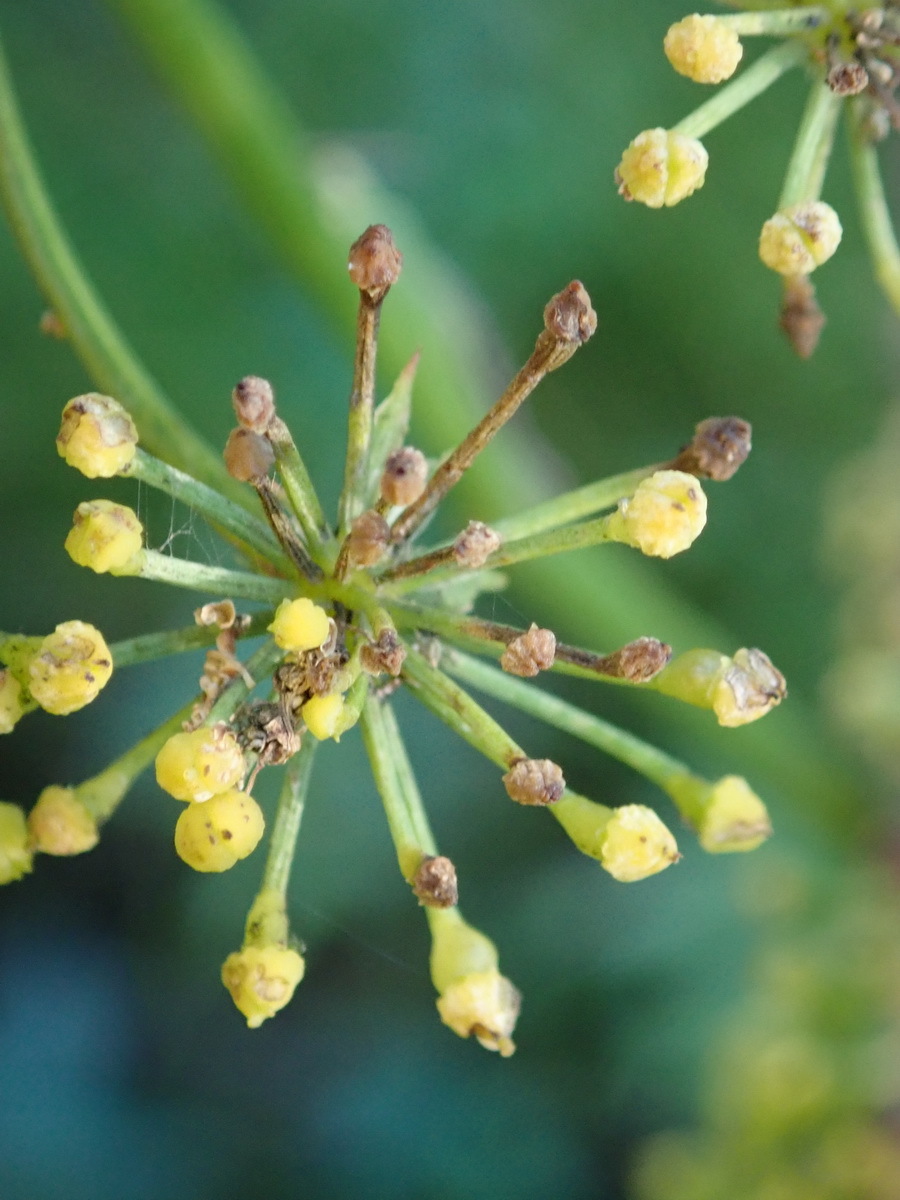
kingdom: Plantae
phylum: Tracheophyta
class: Magnoliopsida
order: Apiales
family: Apiaceae
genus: Notobubon
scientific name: Notobubon ferulaceum
